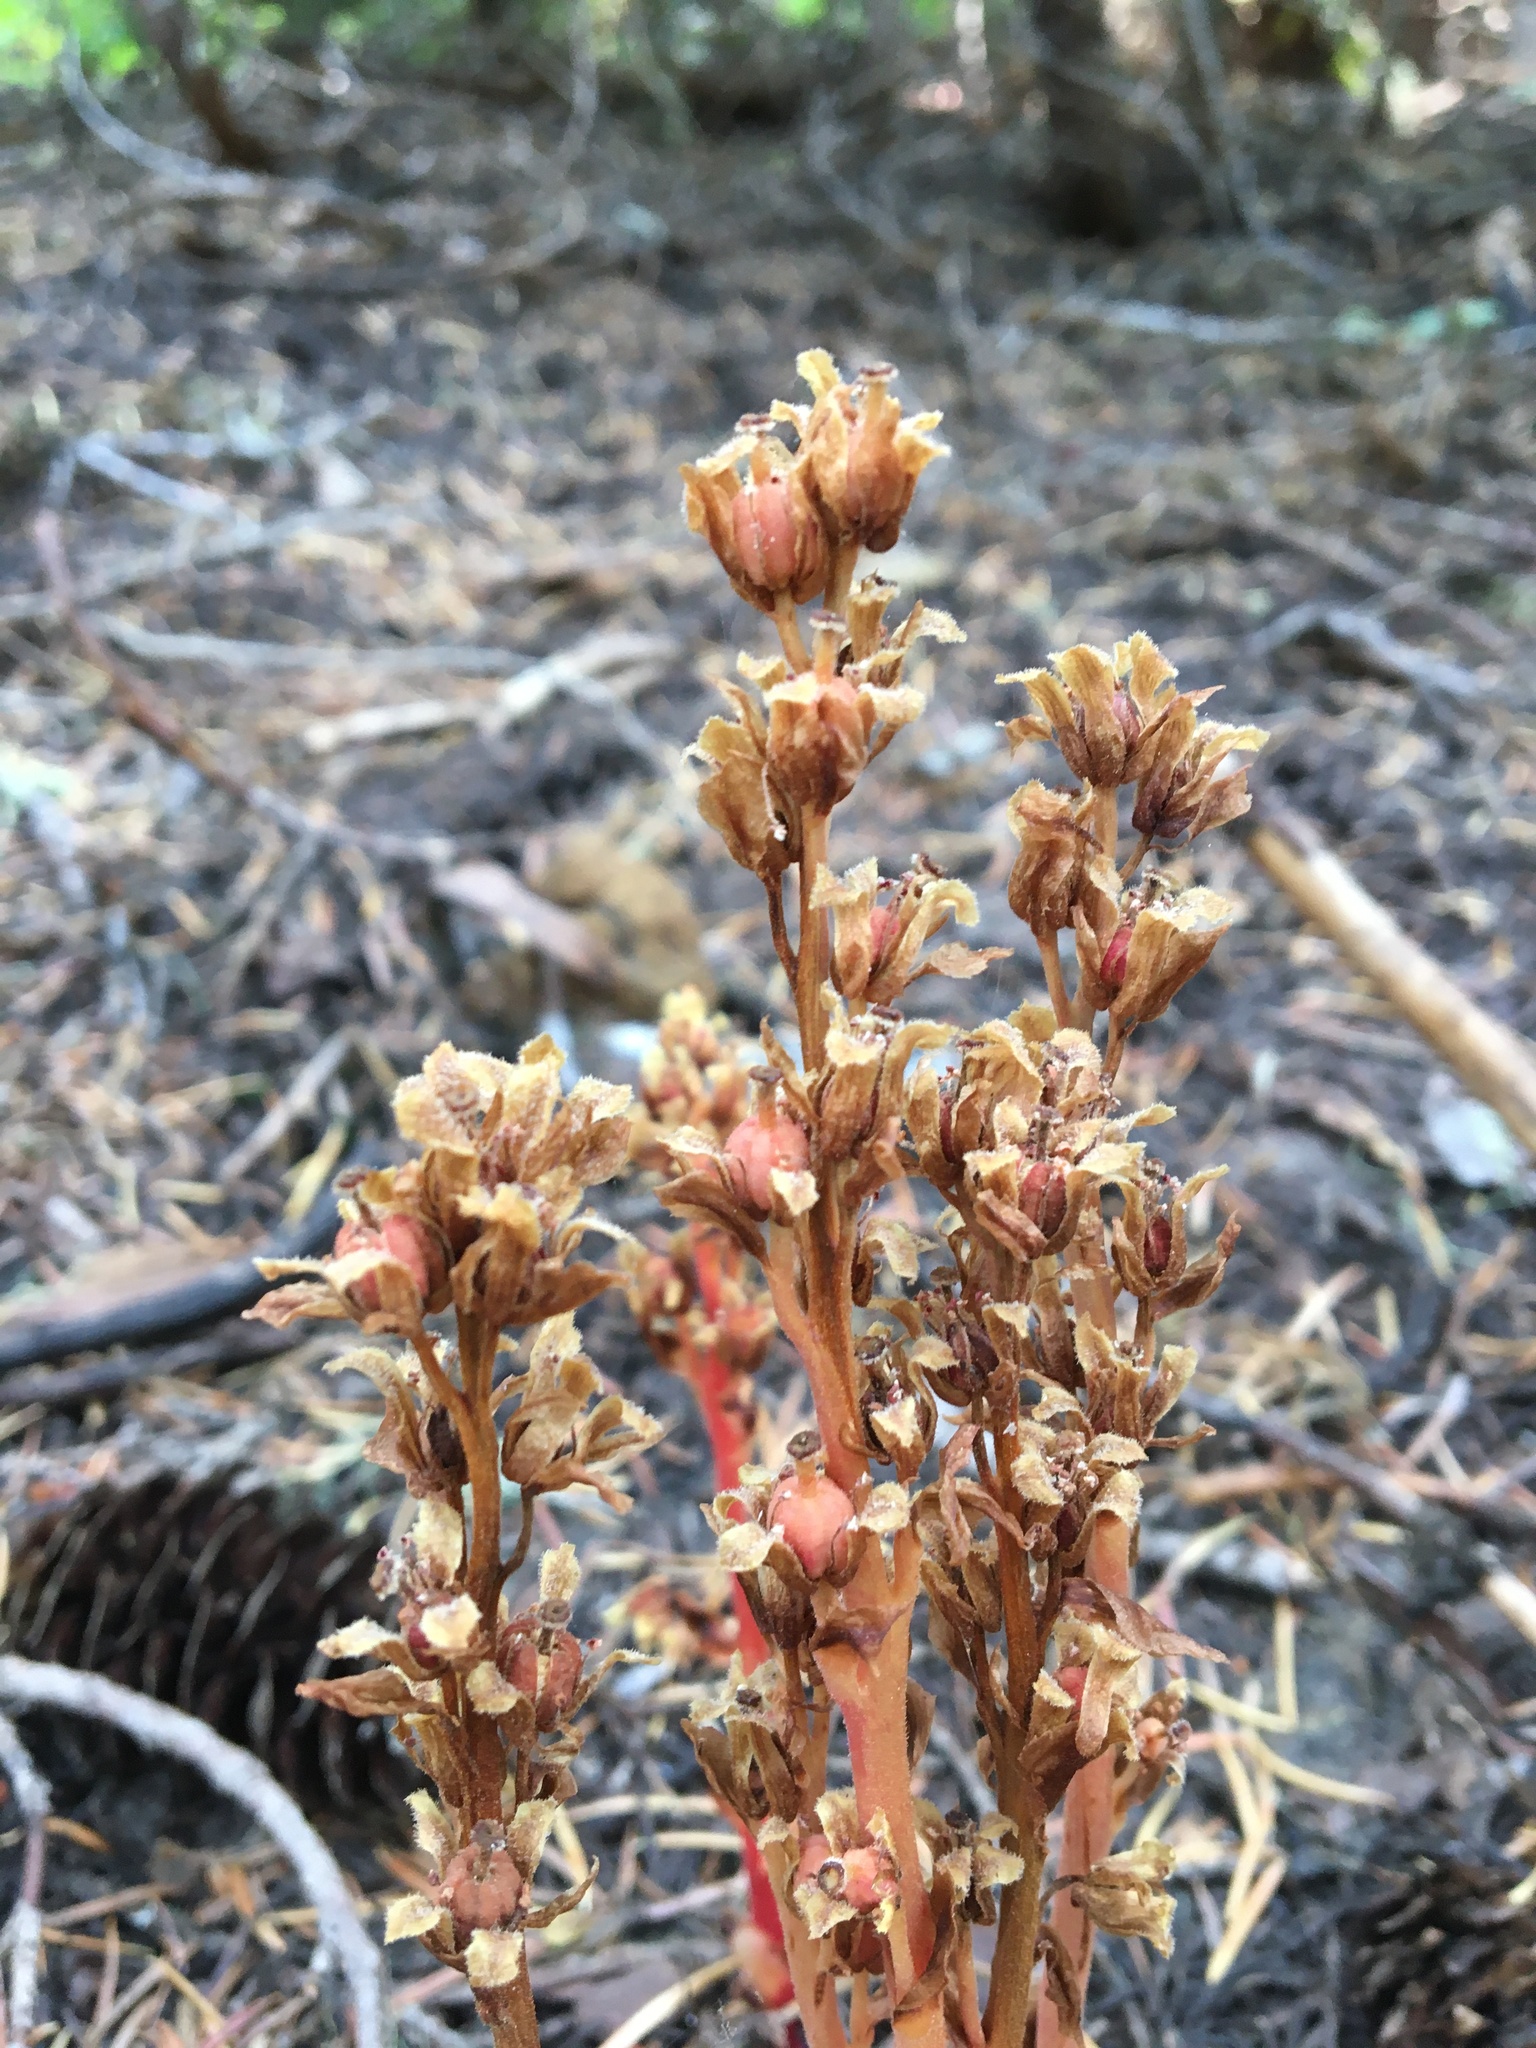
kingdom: Plantae
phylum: Tracheophyta
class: Magnoliopsida
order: Ericales
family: Ericaceae
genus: Hypopitys
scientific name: Hypopitys monotropa
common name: Yellow bird's-nest
